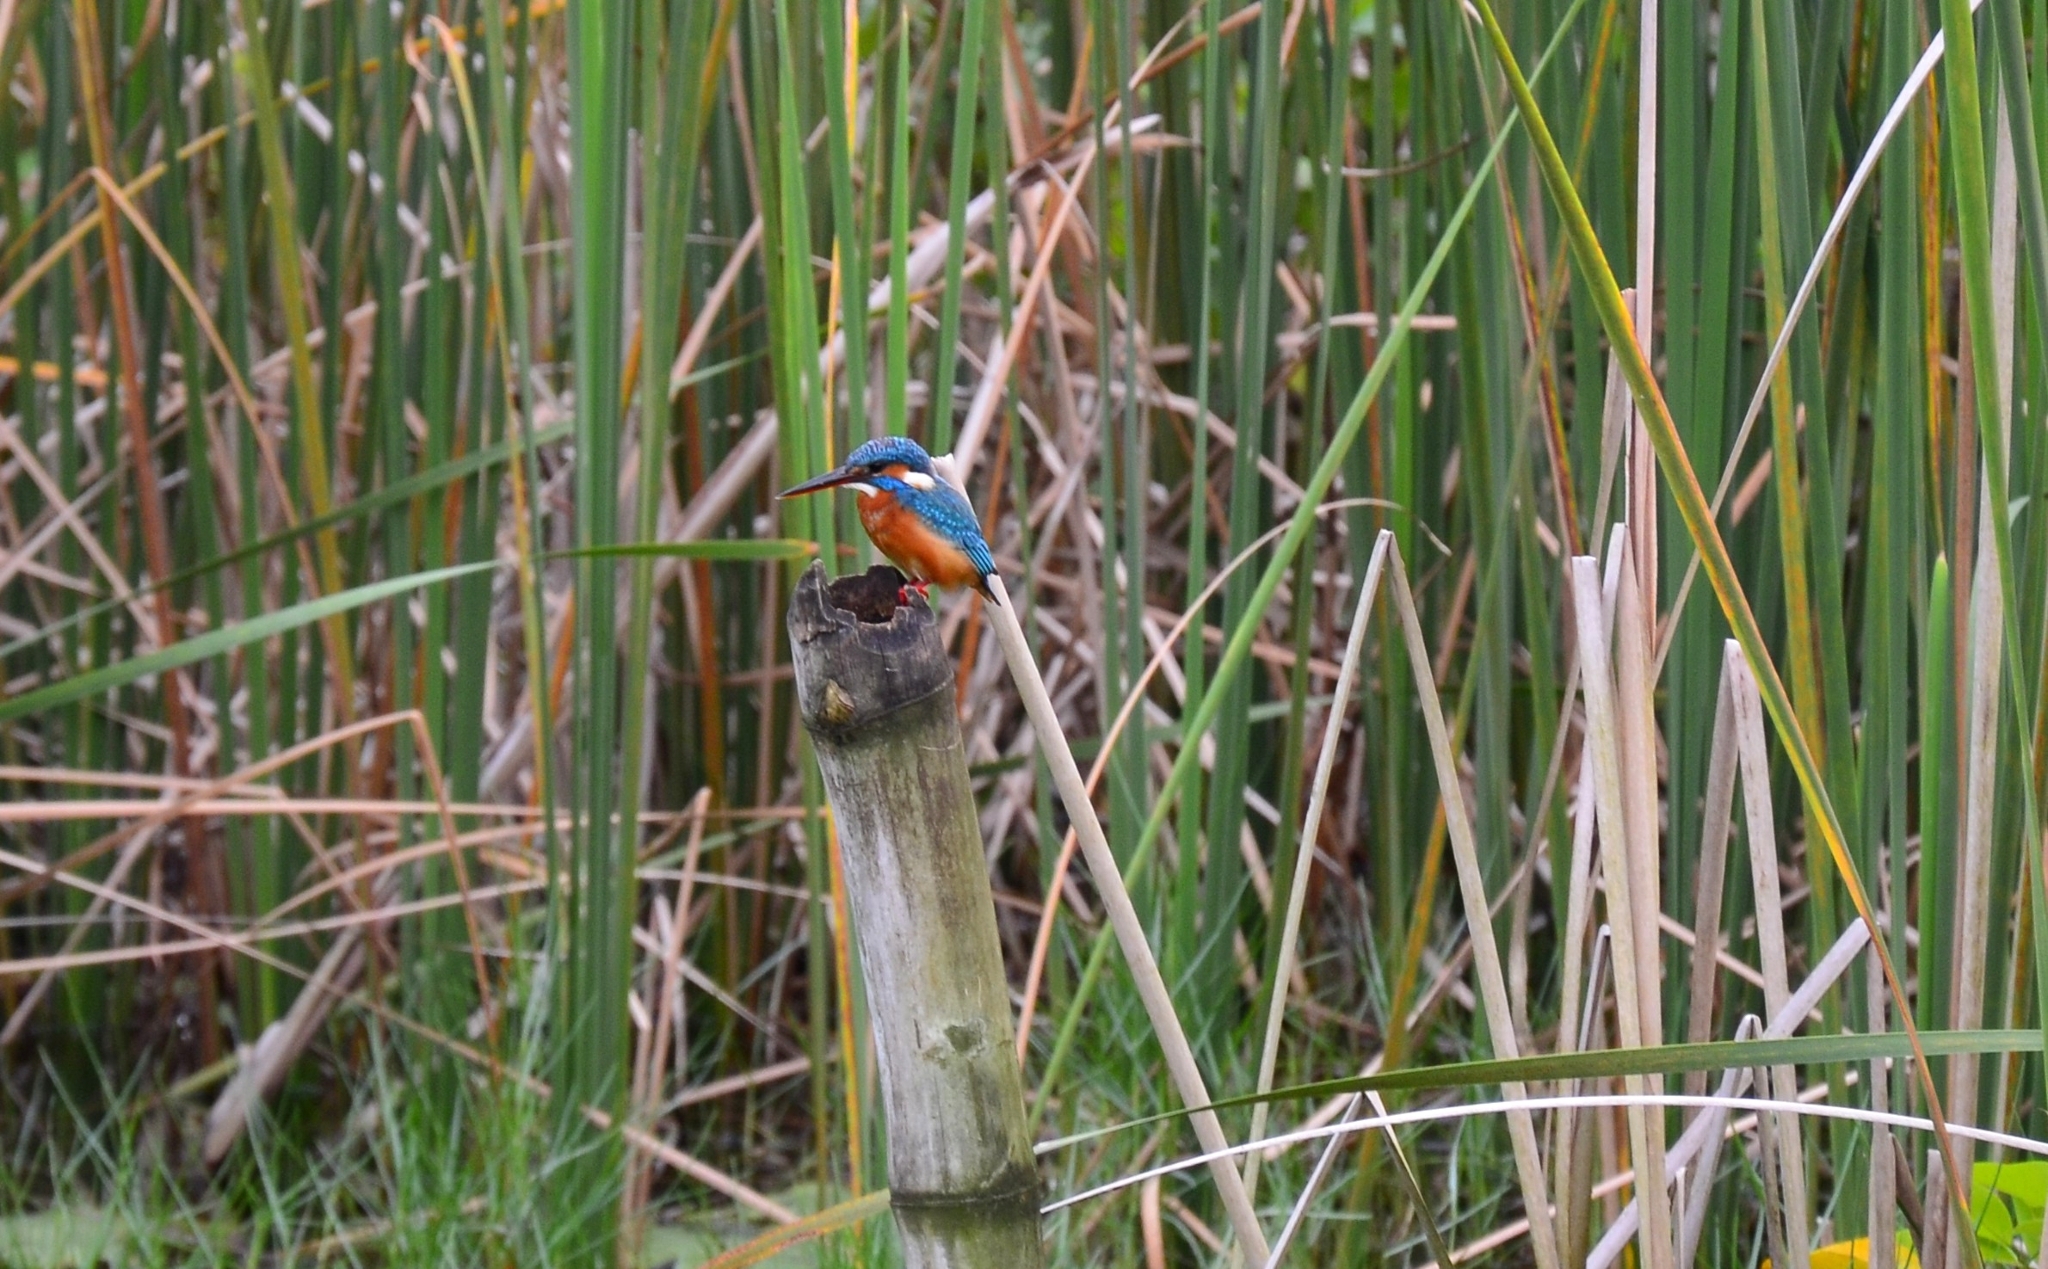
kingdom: Animalia
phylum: Chordata
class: Aves
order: Coraciiformes
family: Alcedinidae
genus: Alcedo
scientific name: Alcedo atthis
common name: Common kingfisher
